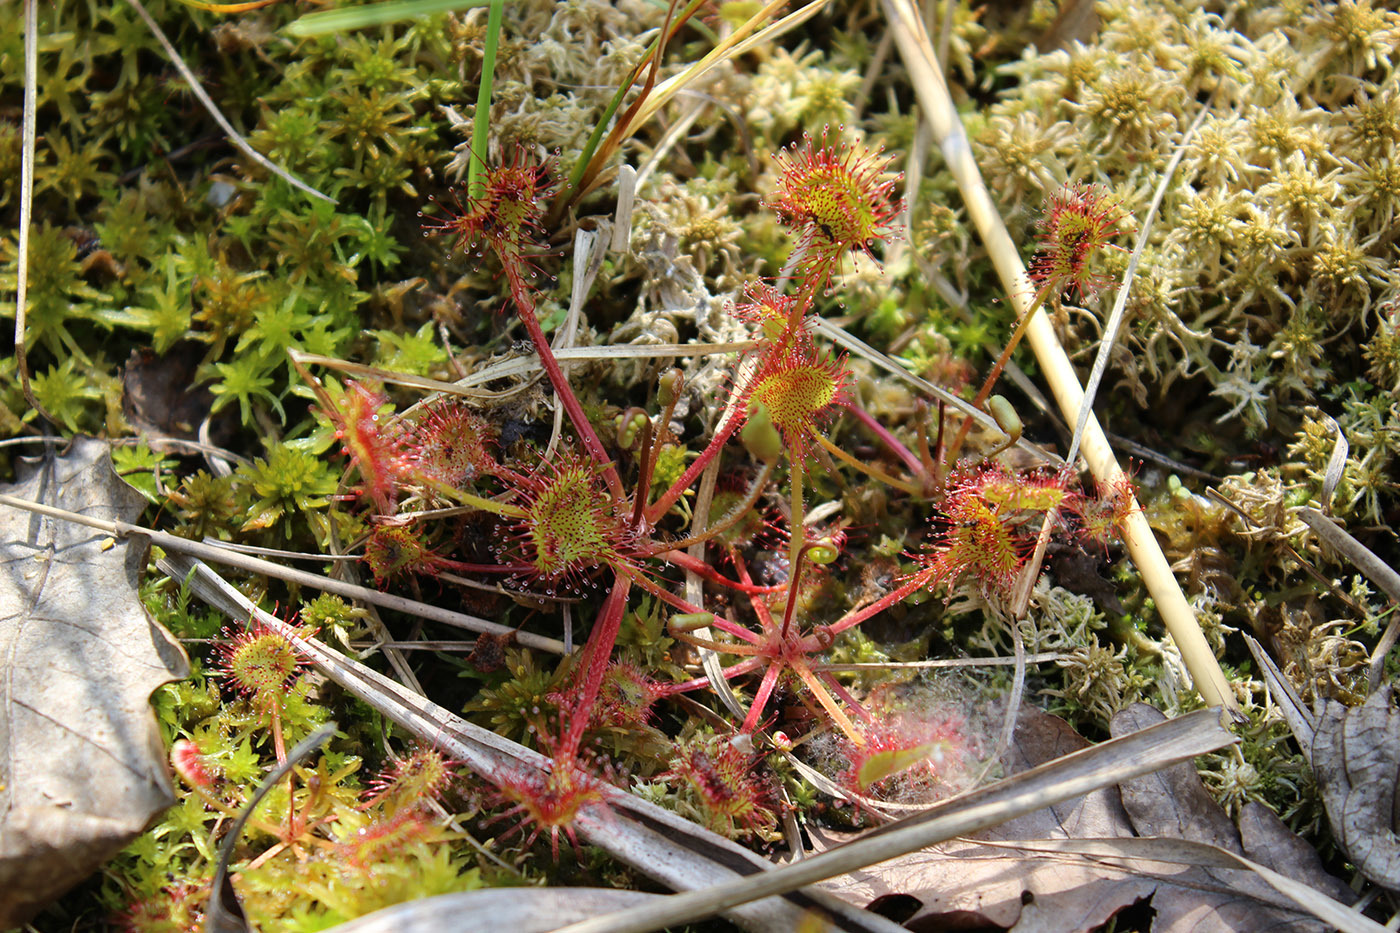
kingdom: Plantae
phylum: Tracheophyta
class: Magnoliopsida
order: Caryophyllales
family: Droseraceae
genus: Drosera
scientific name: Drosera rotundifolia
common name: Round-leaved sundew
